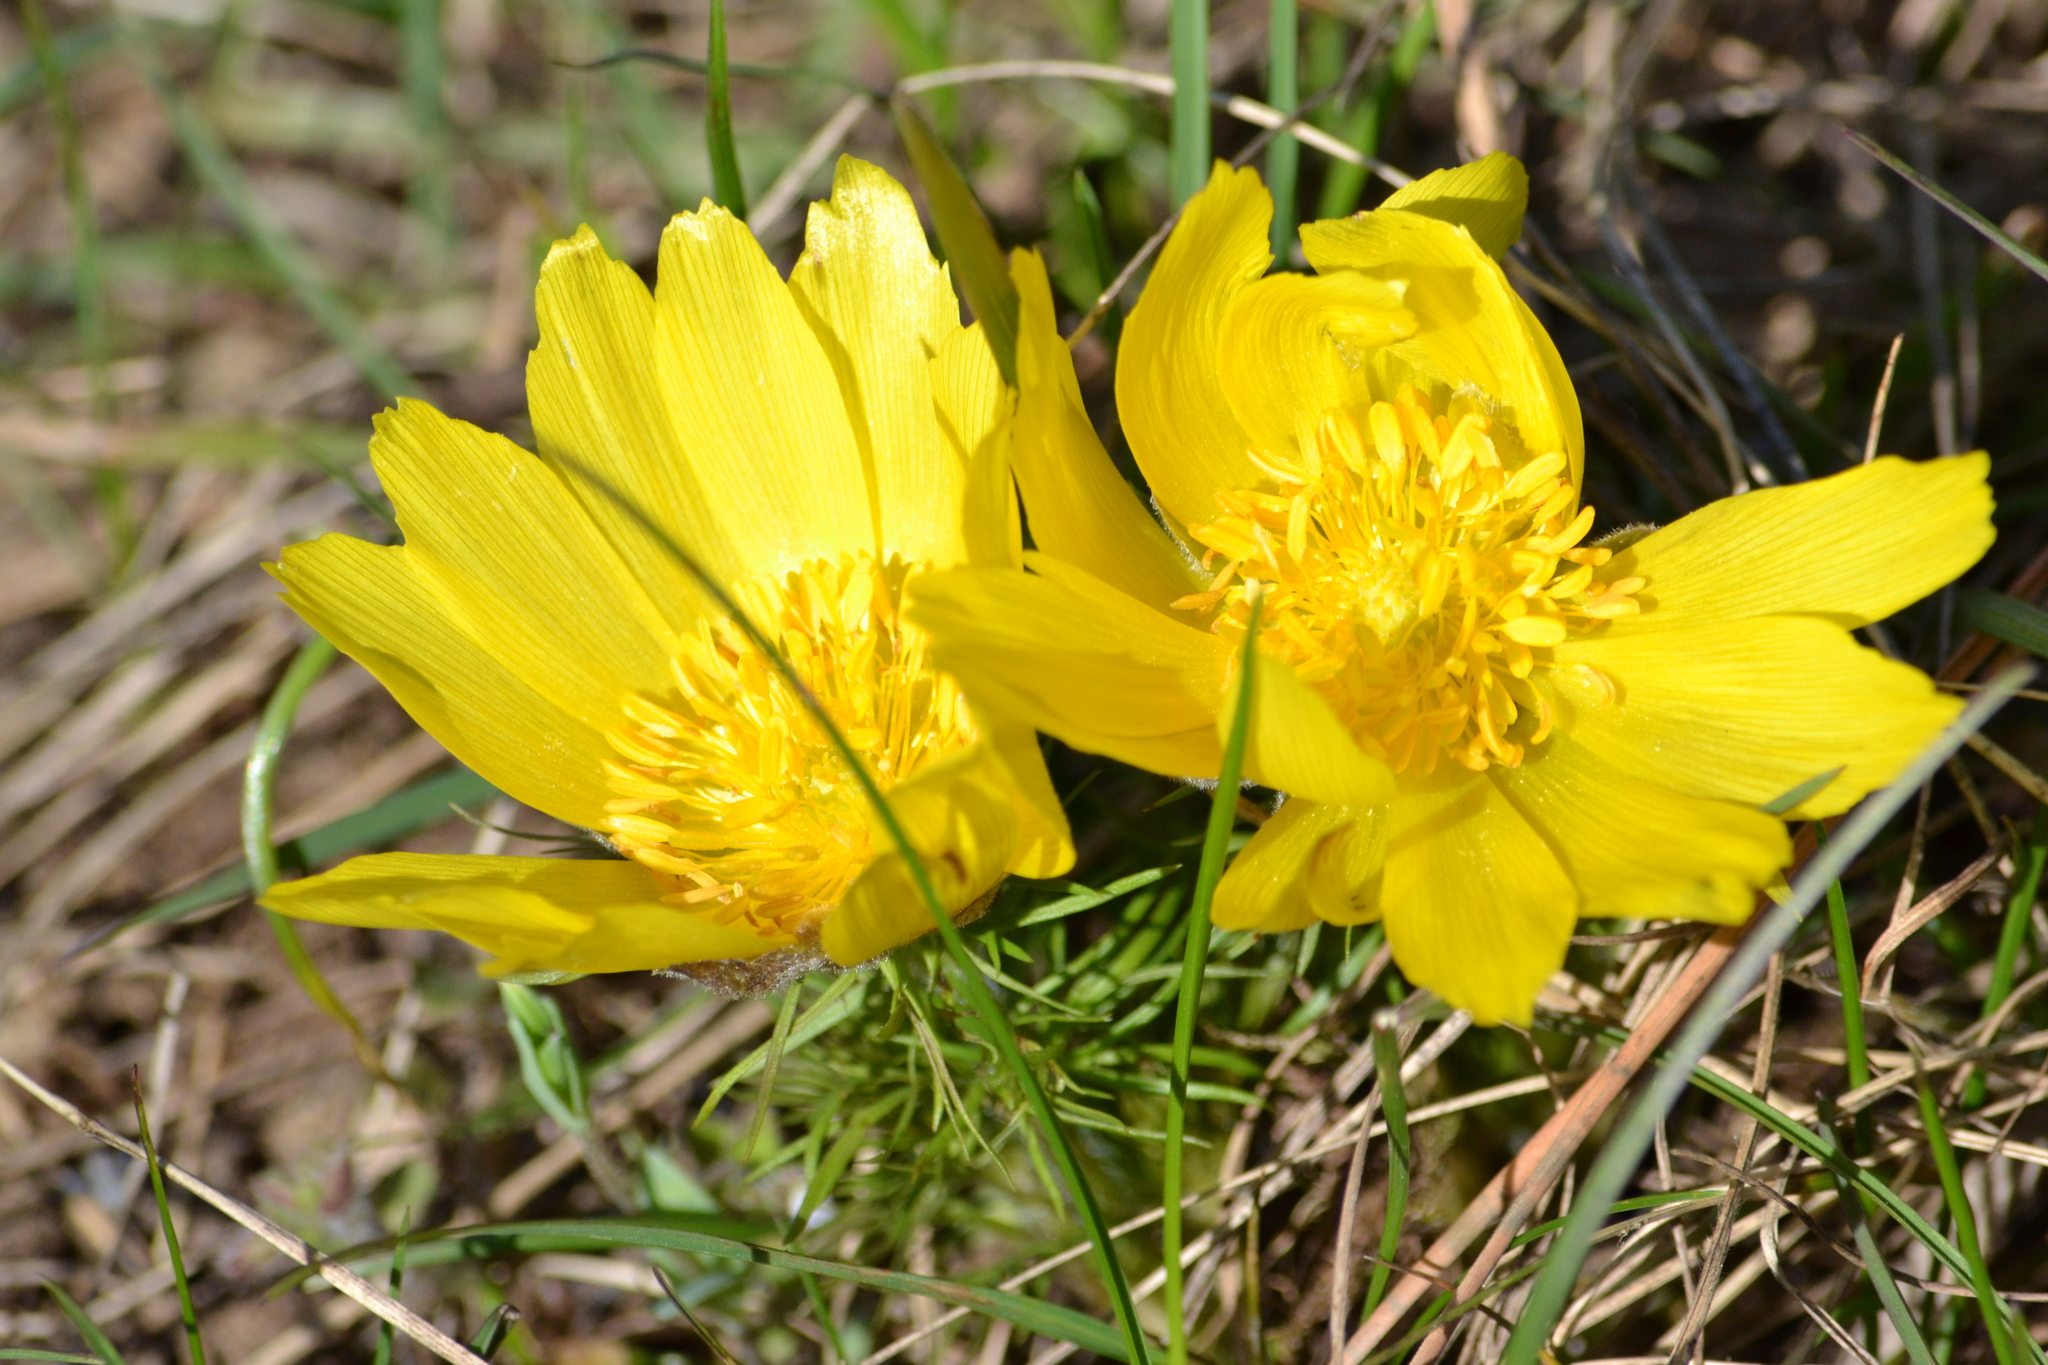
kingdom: Plantae
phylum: Tracheophyta
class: Magnoliopsida
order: Ranunculales
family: Ranunculaceae
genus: Adonis
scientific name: Adonis vernalis
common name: Yellow pheasants-eye
